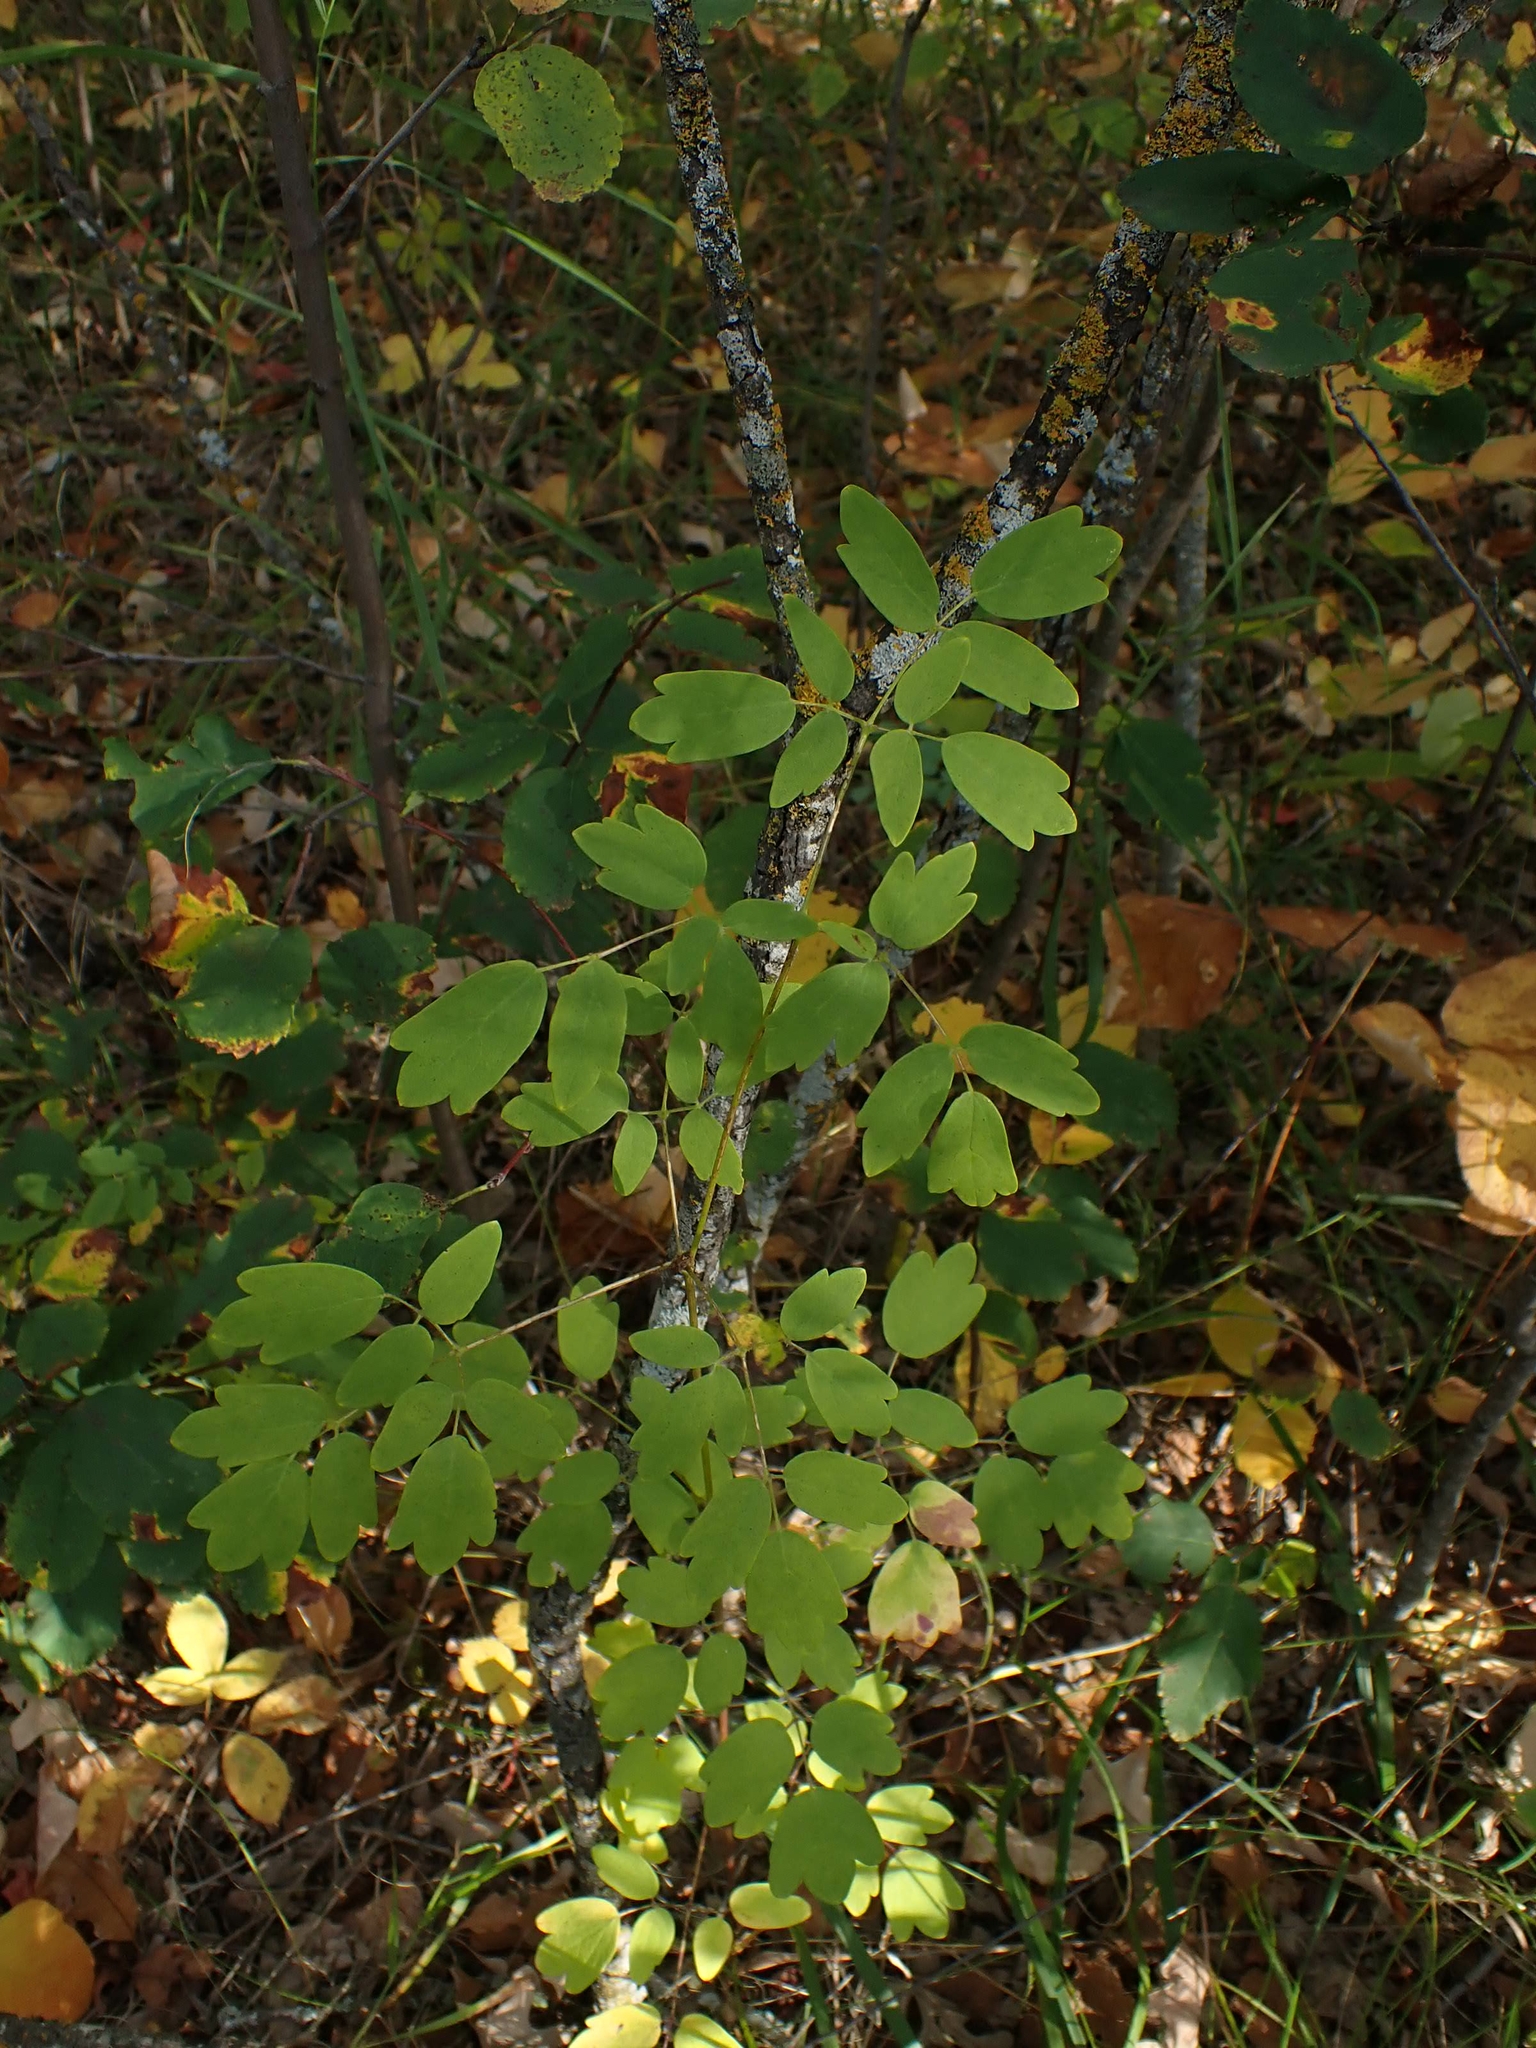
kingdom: Plantae
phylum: Tracheophyta
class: Magnoliopsida
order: Ranunculales
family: Ranunculaceae
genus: Thalictrum
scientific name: Thalictrum dasycarpum
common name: Purple meadow-rue
